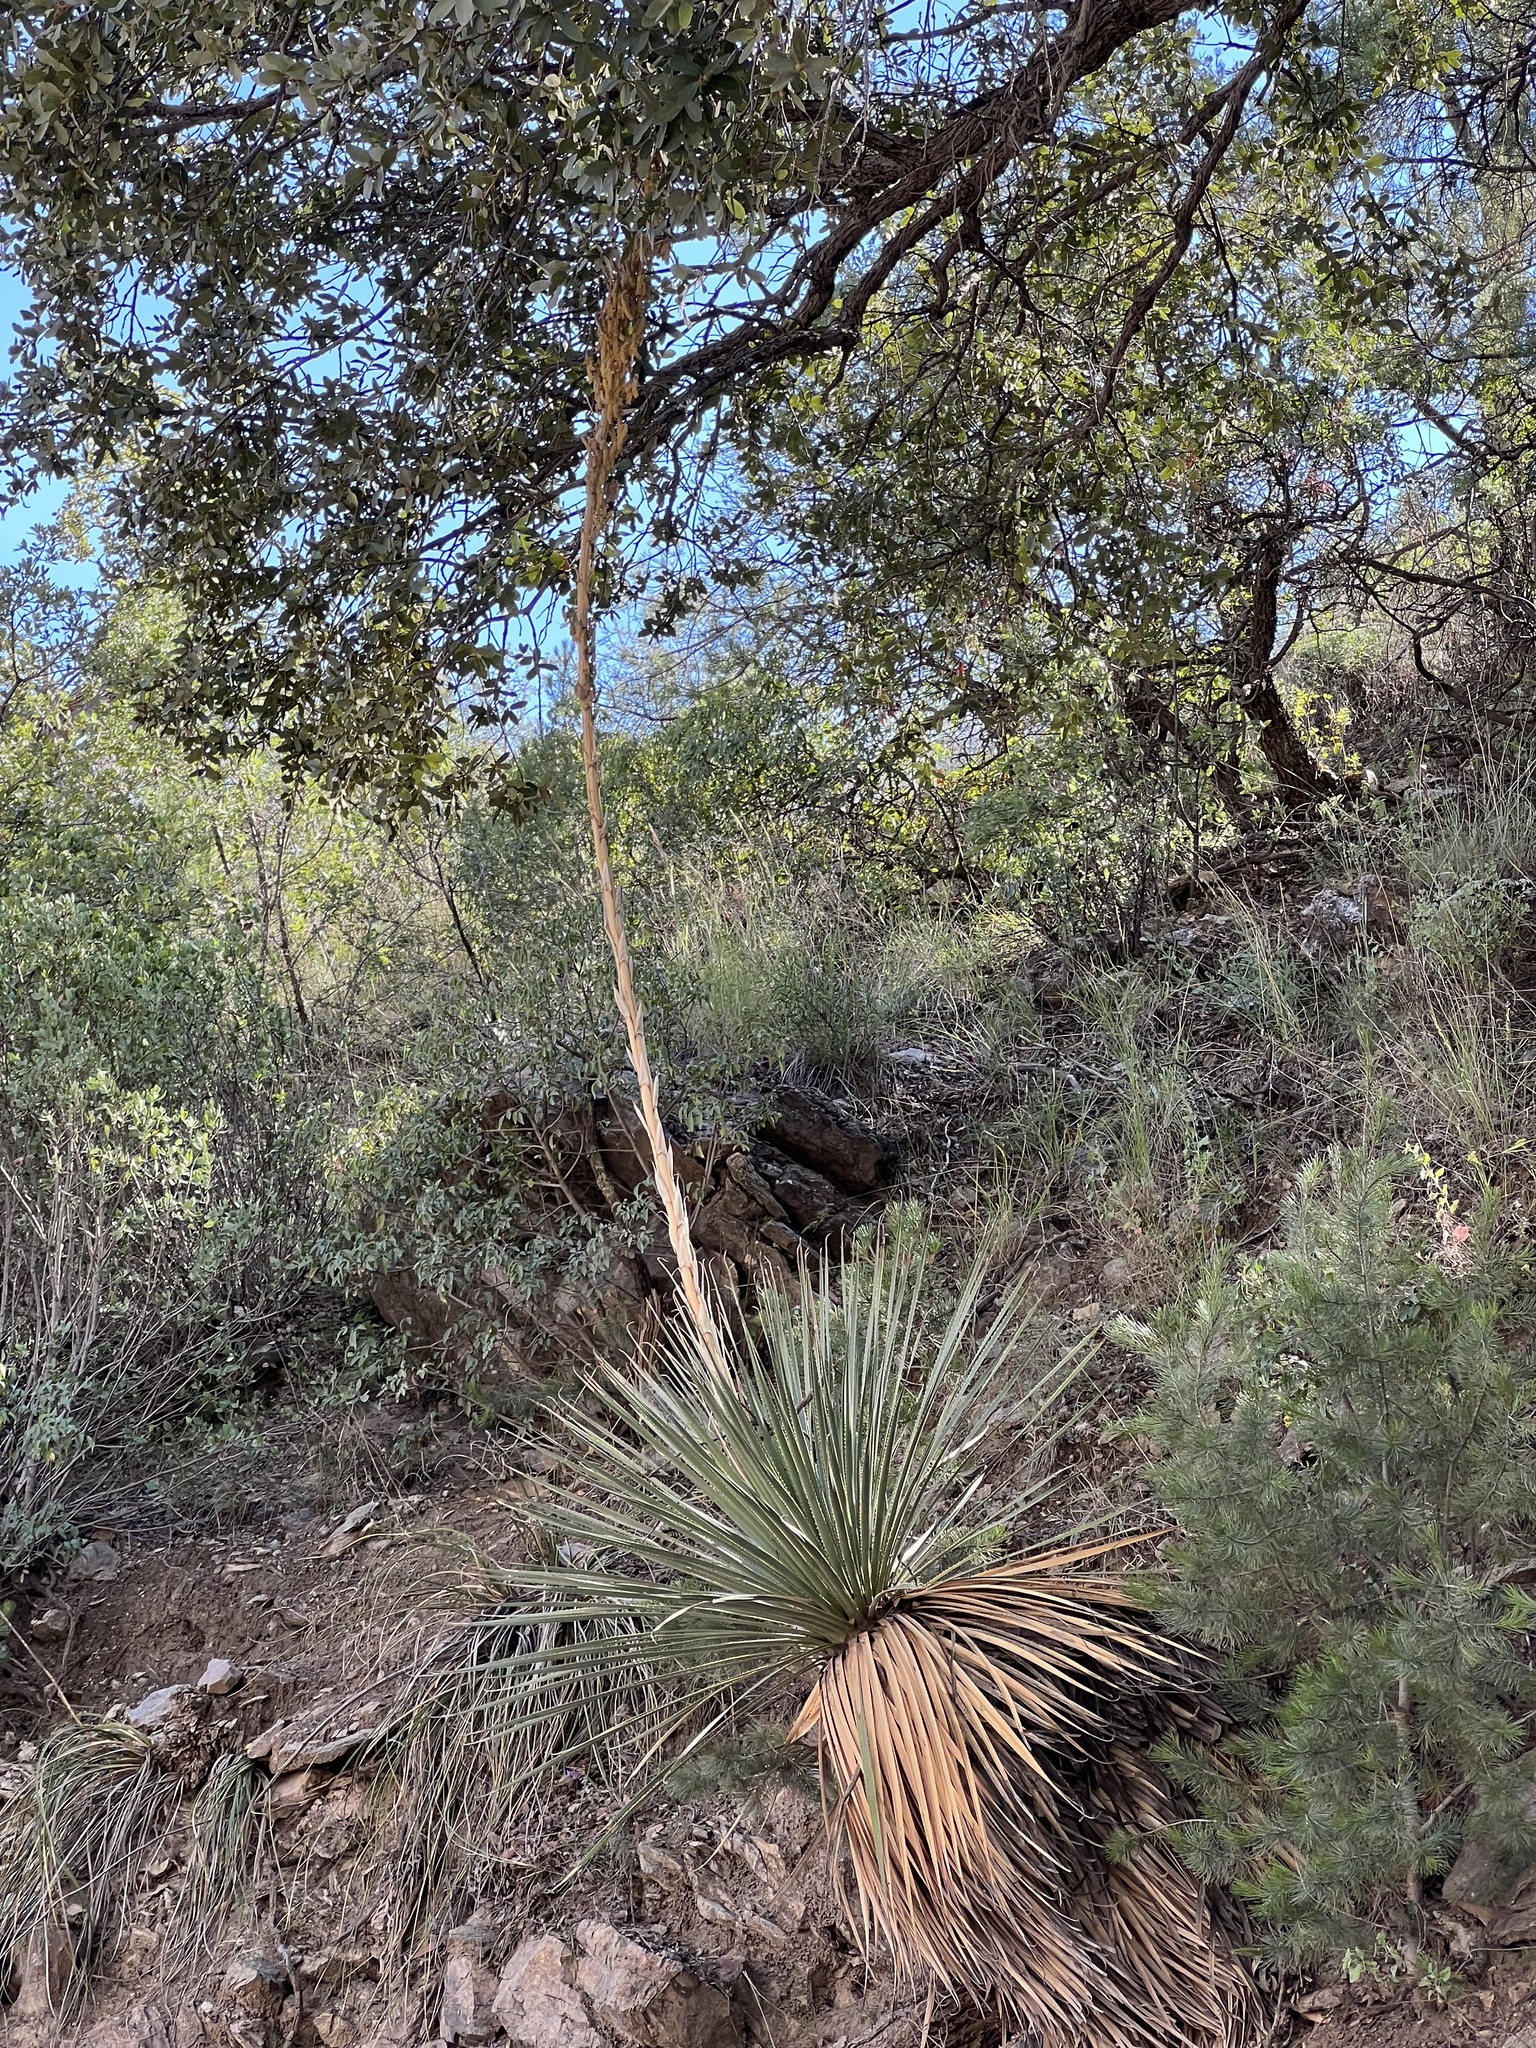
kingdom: Plantae
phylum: Tracheophyta
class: Liliopsida
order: Asparagales
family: Asparagaceae
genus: Dasylirion
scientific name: Dasylirion wheeleri
